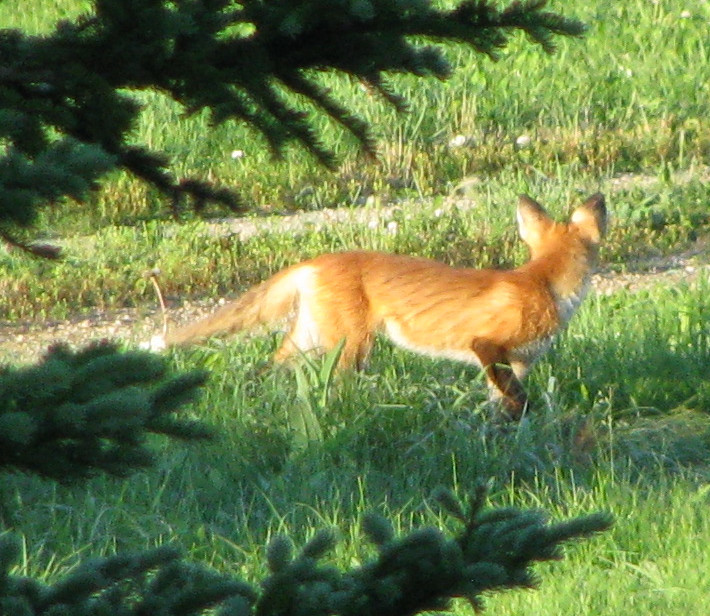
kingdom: Animalia
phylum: Chordata
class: Mammalia
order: Carnivora
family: Canidae
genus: Vulpes
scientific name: Vulpes vulpes
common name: Red fox
